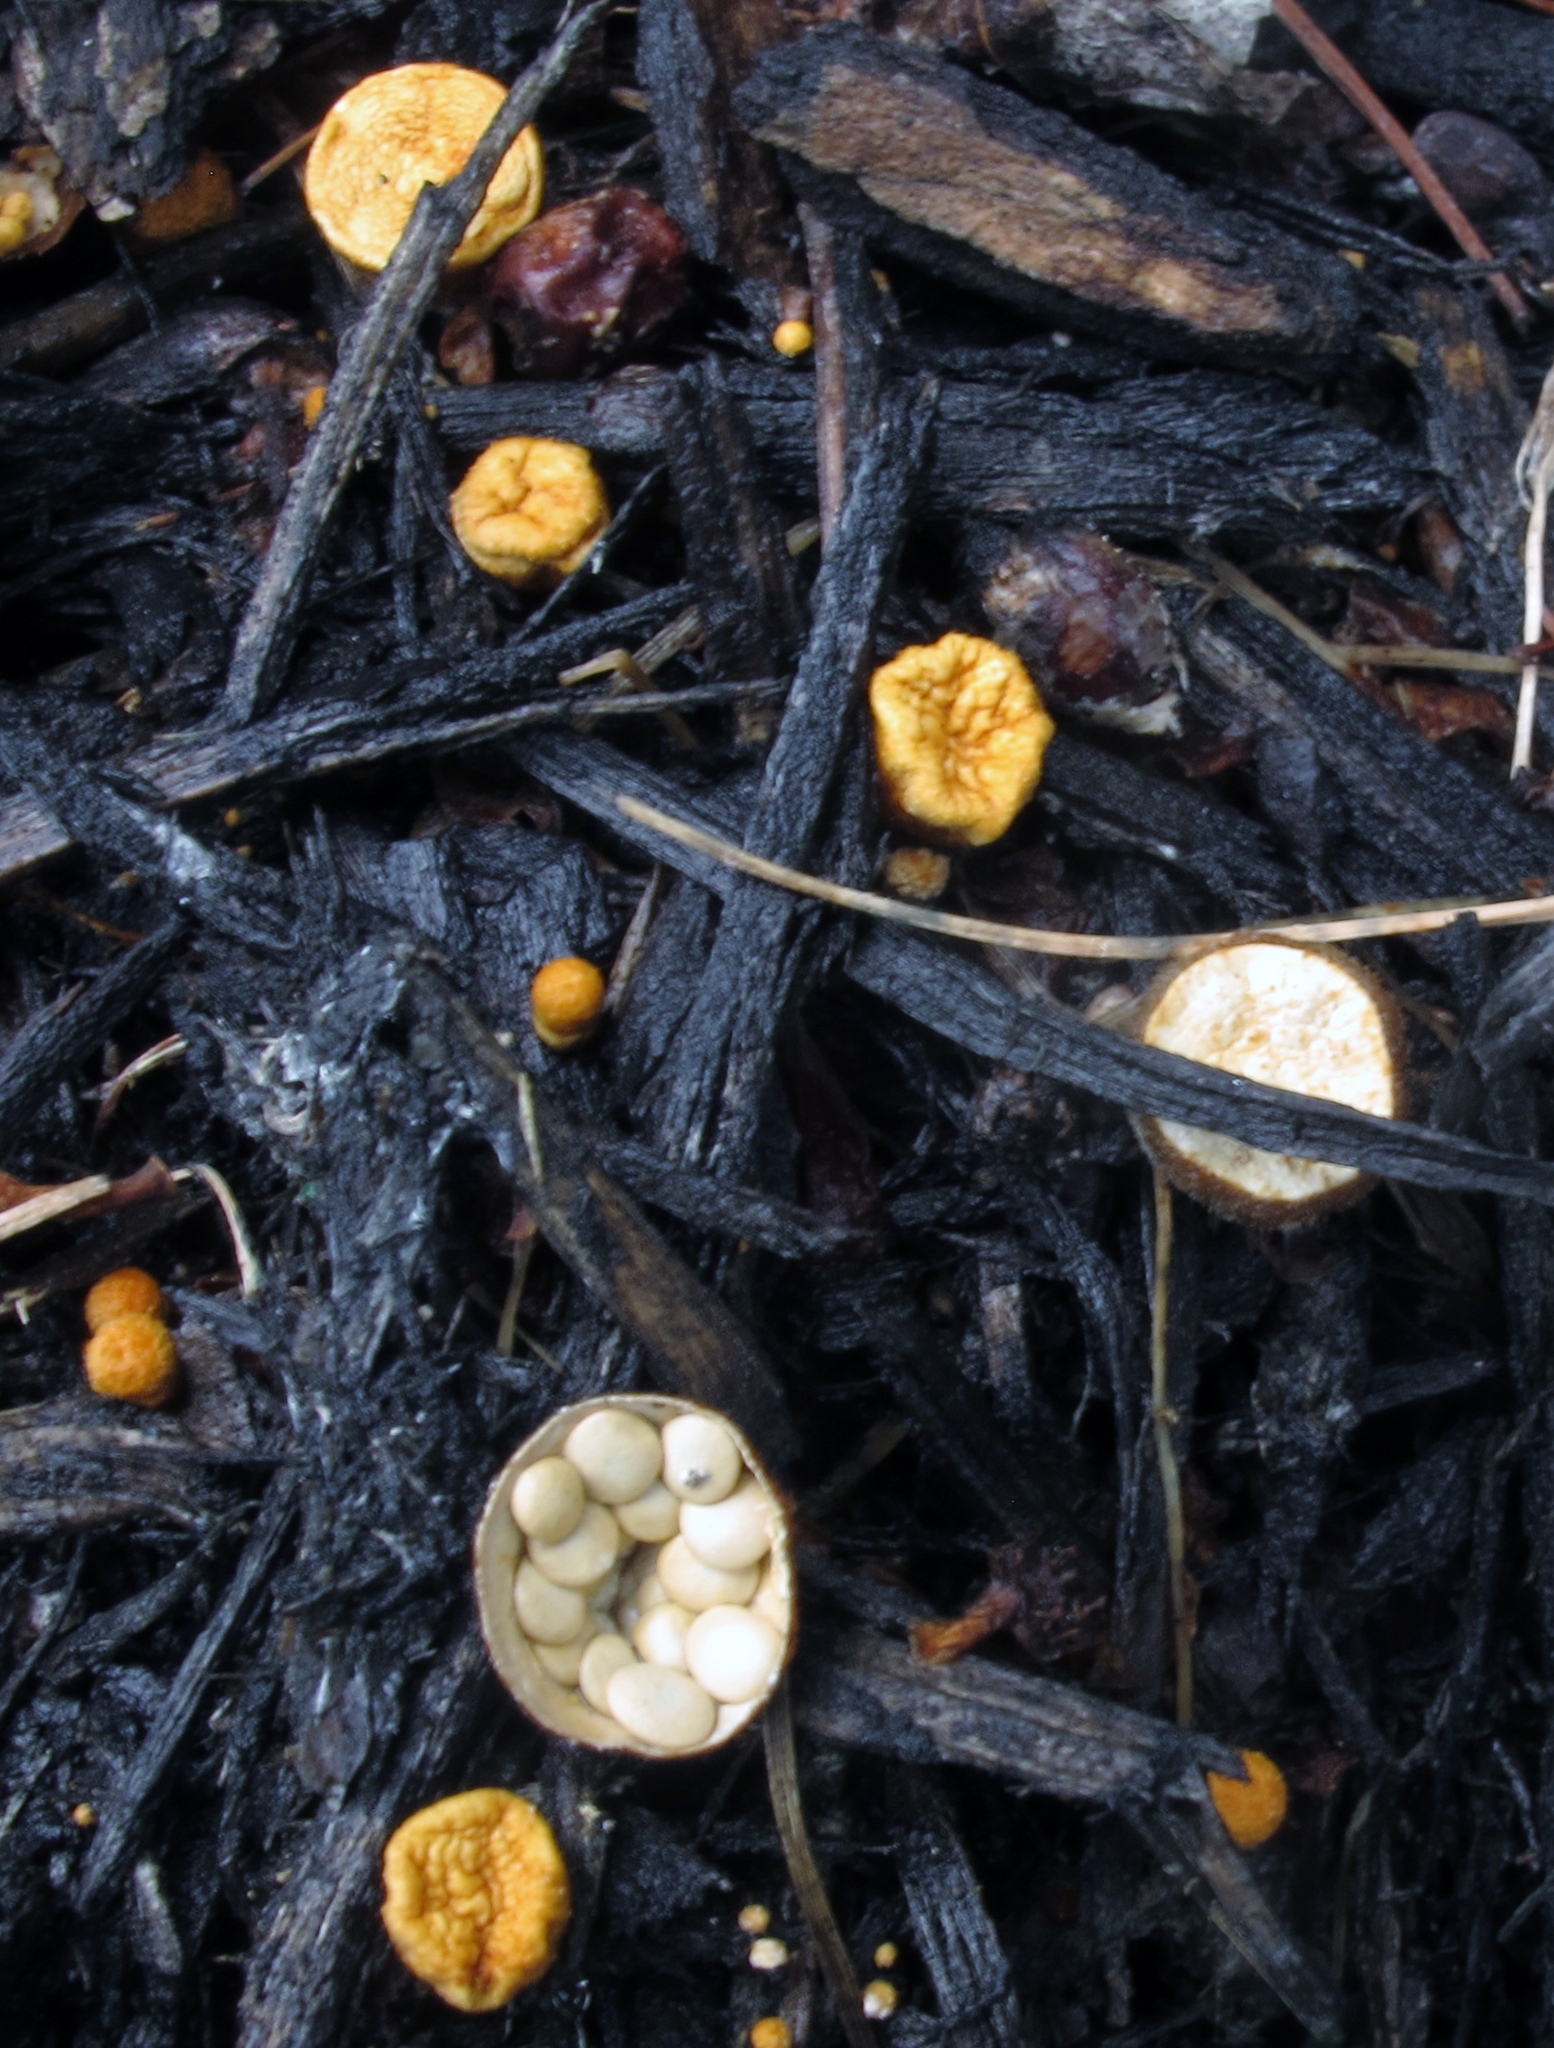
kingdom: Fungi
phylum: Basidiomycota
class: Agaricomycetes
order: Agaricales
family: Nidulariaceae
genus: Crucibulum
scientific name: Crucibulum laeve
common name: Common bird's nest
